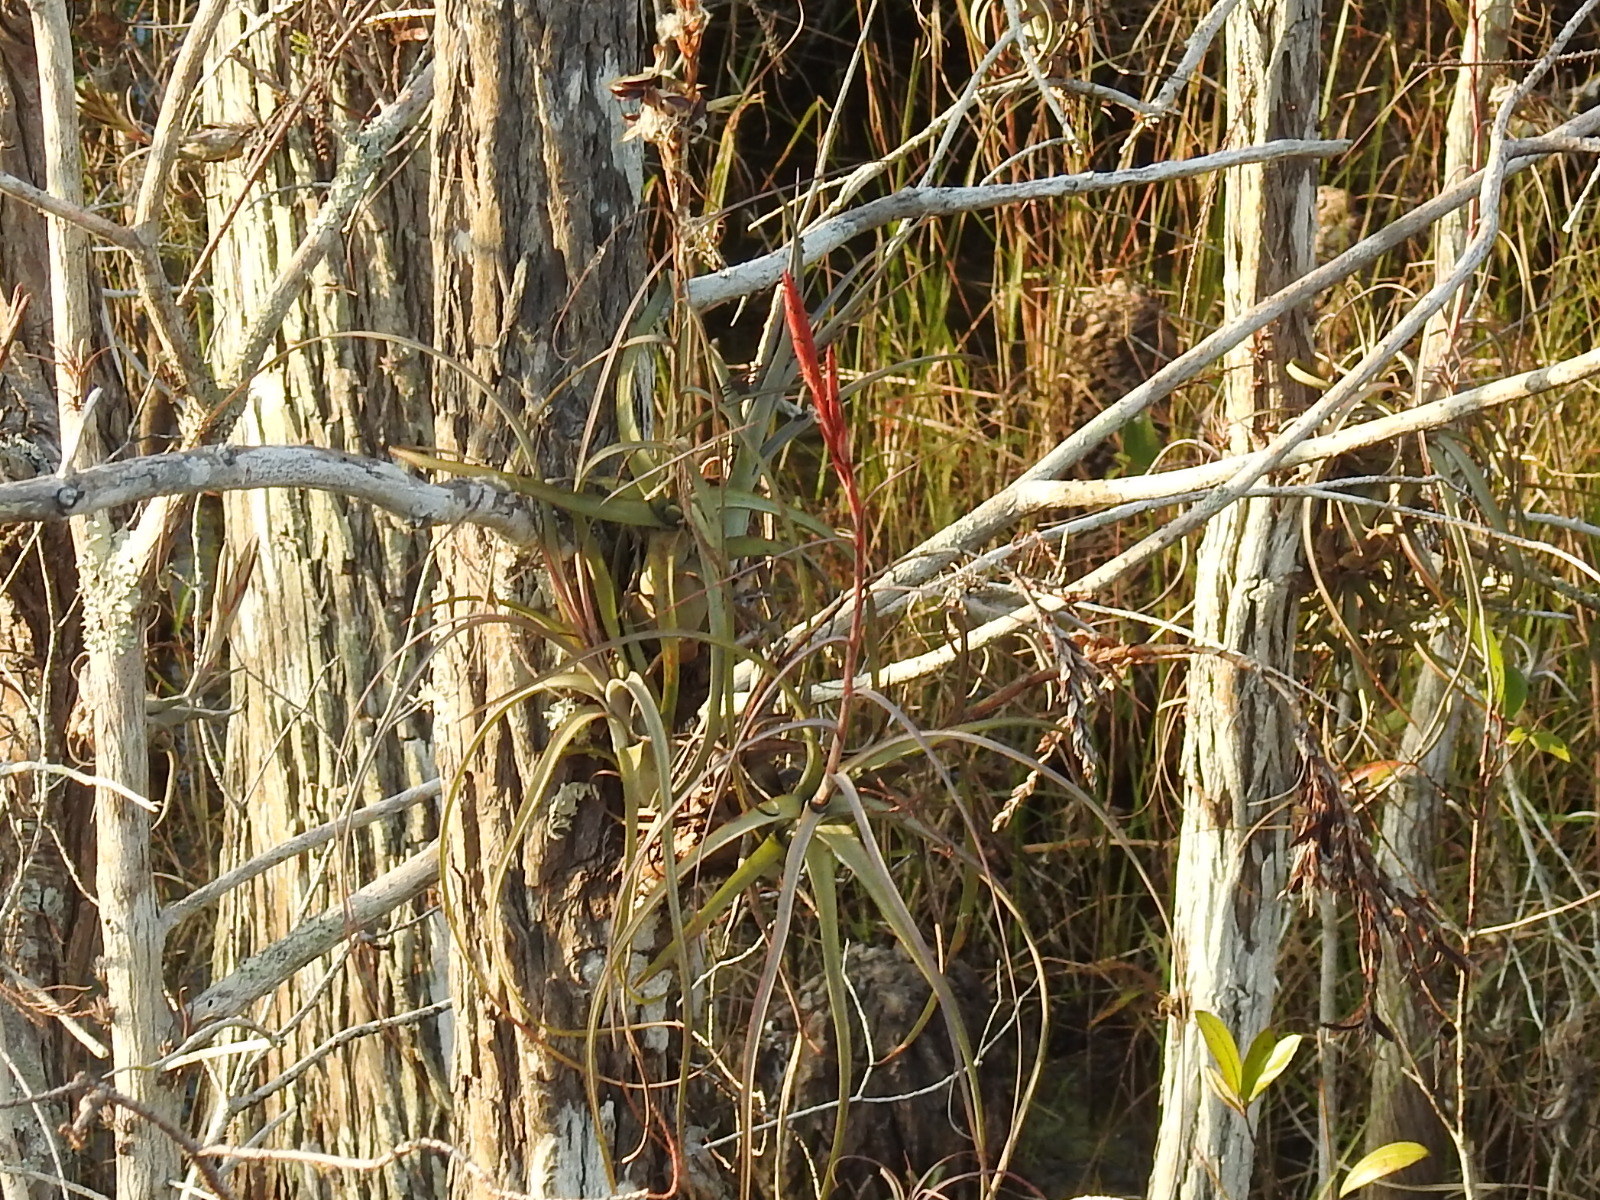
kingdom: Plantae
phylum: Tracheophyta
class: Liliopsida
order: Poales
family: Bromeliaceae
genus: Tillandsia
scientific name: Tillandsia balbisiana
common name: Northern needleleaf
